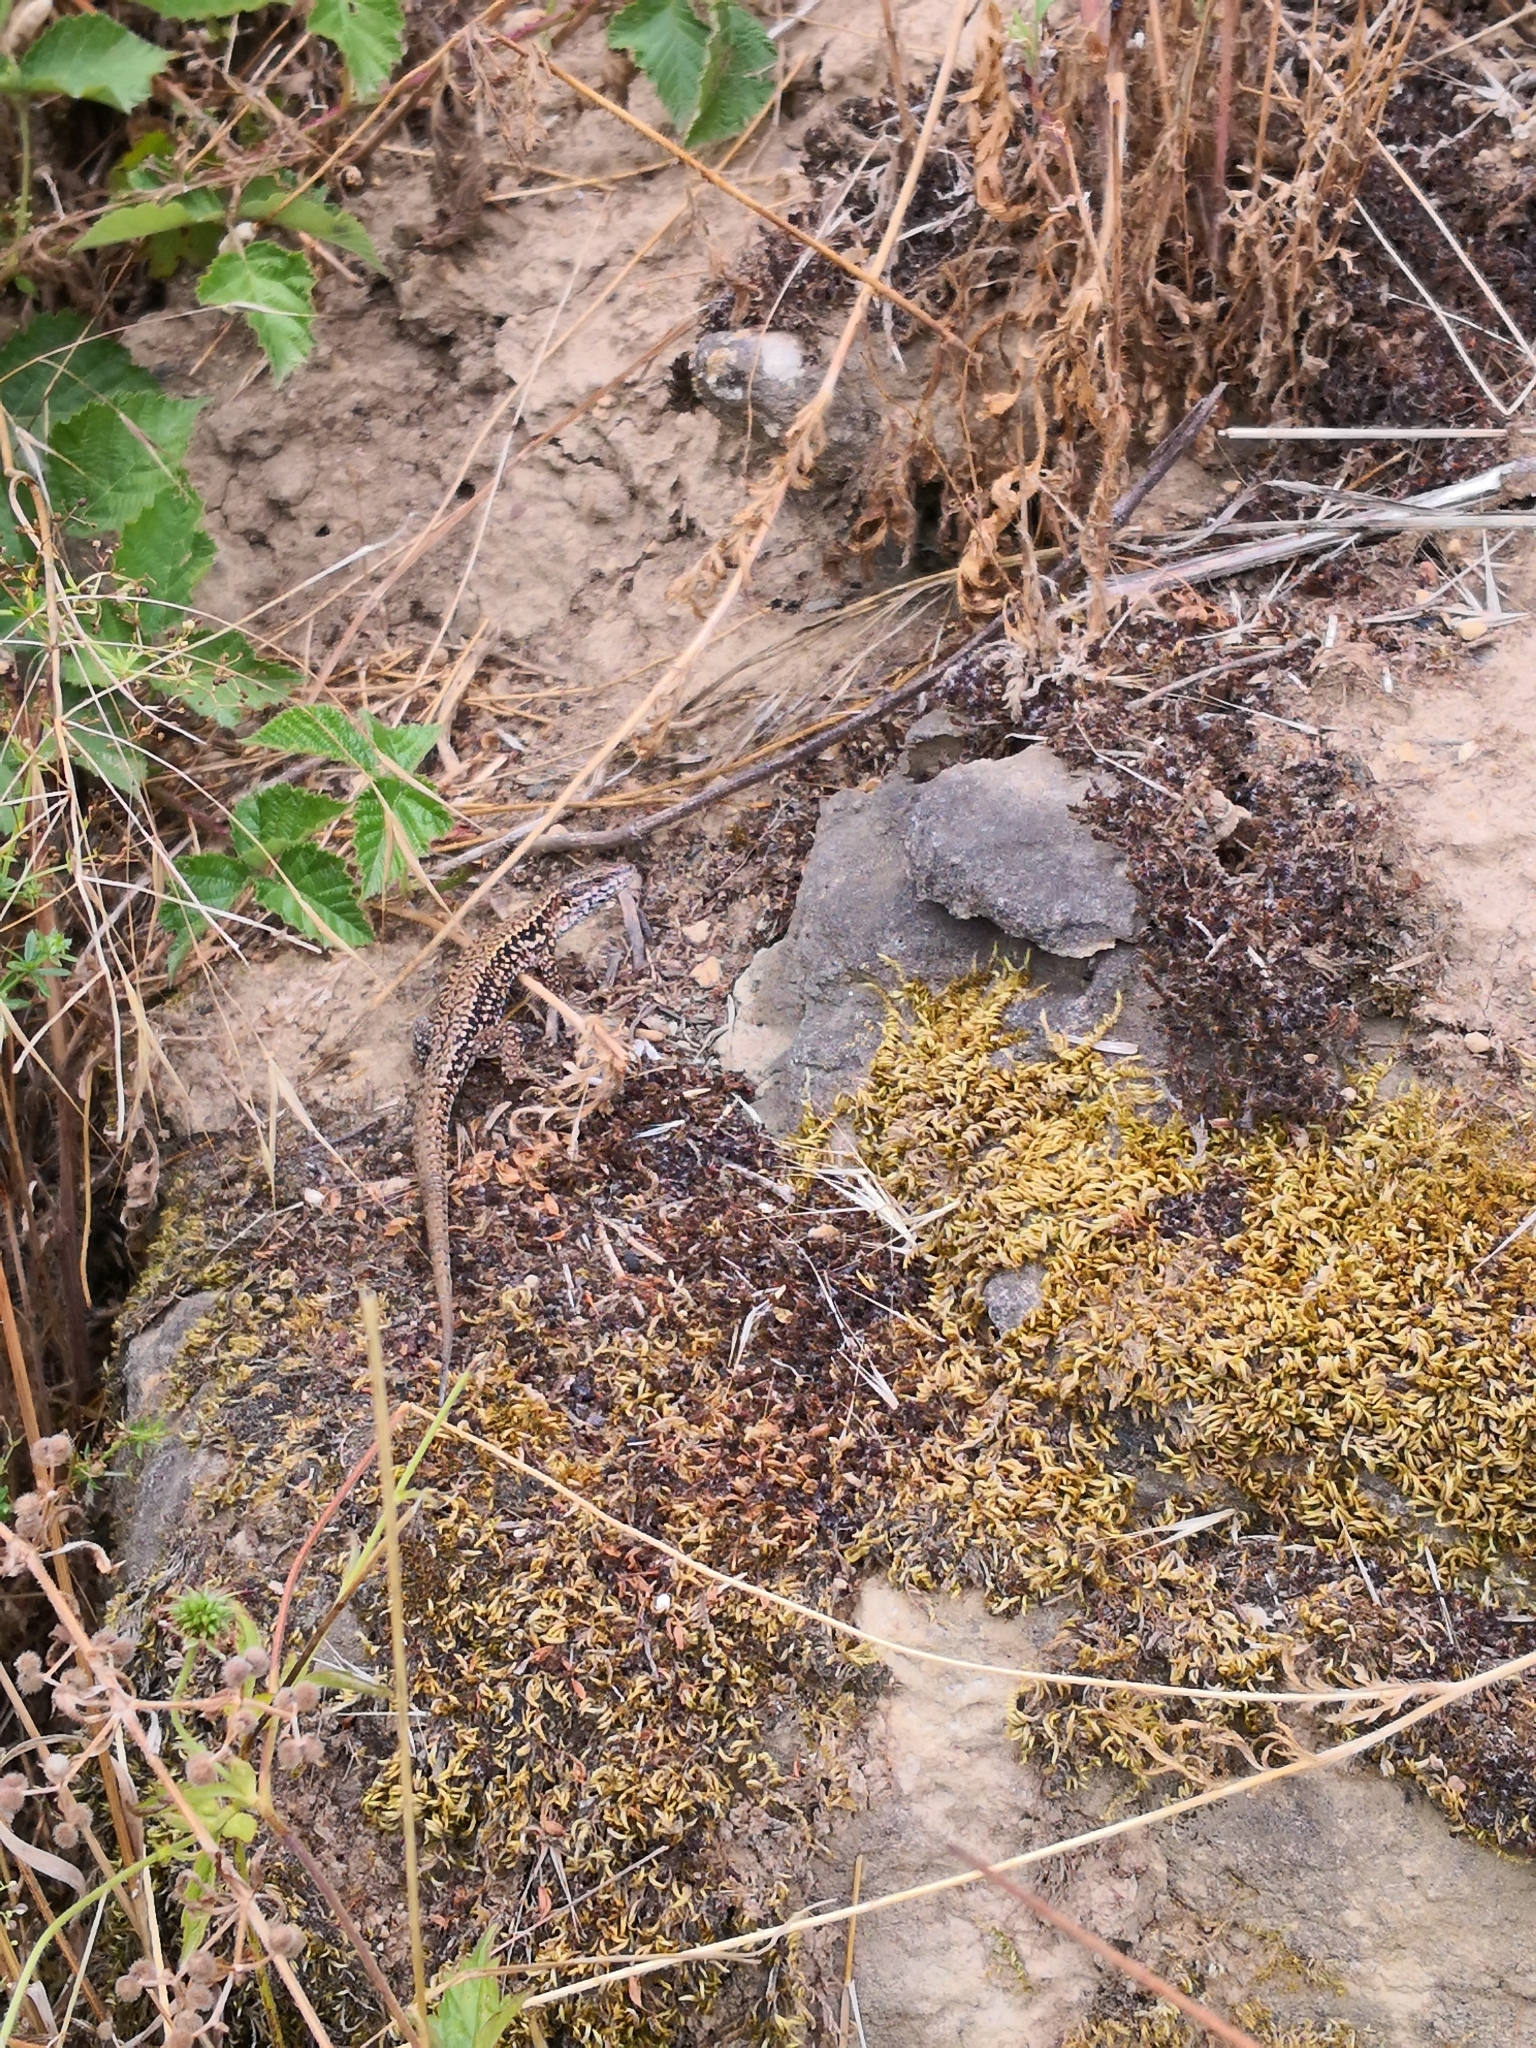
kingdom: Animalia
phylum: Chordata
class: Squamata
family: Lacertidae
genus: Podarcis
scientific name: Podarcis muralis
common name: Common wall lizard
